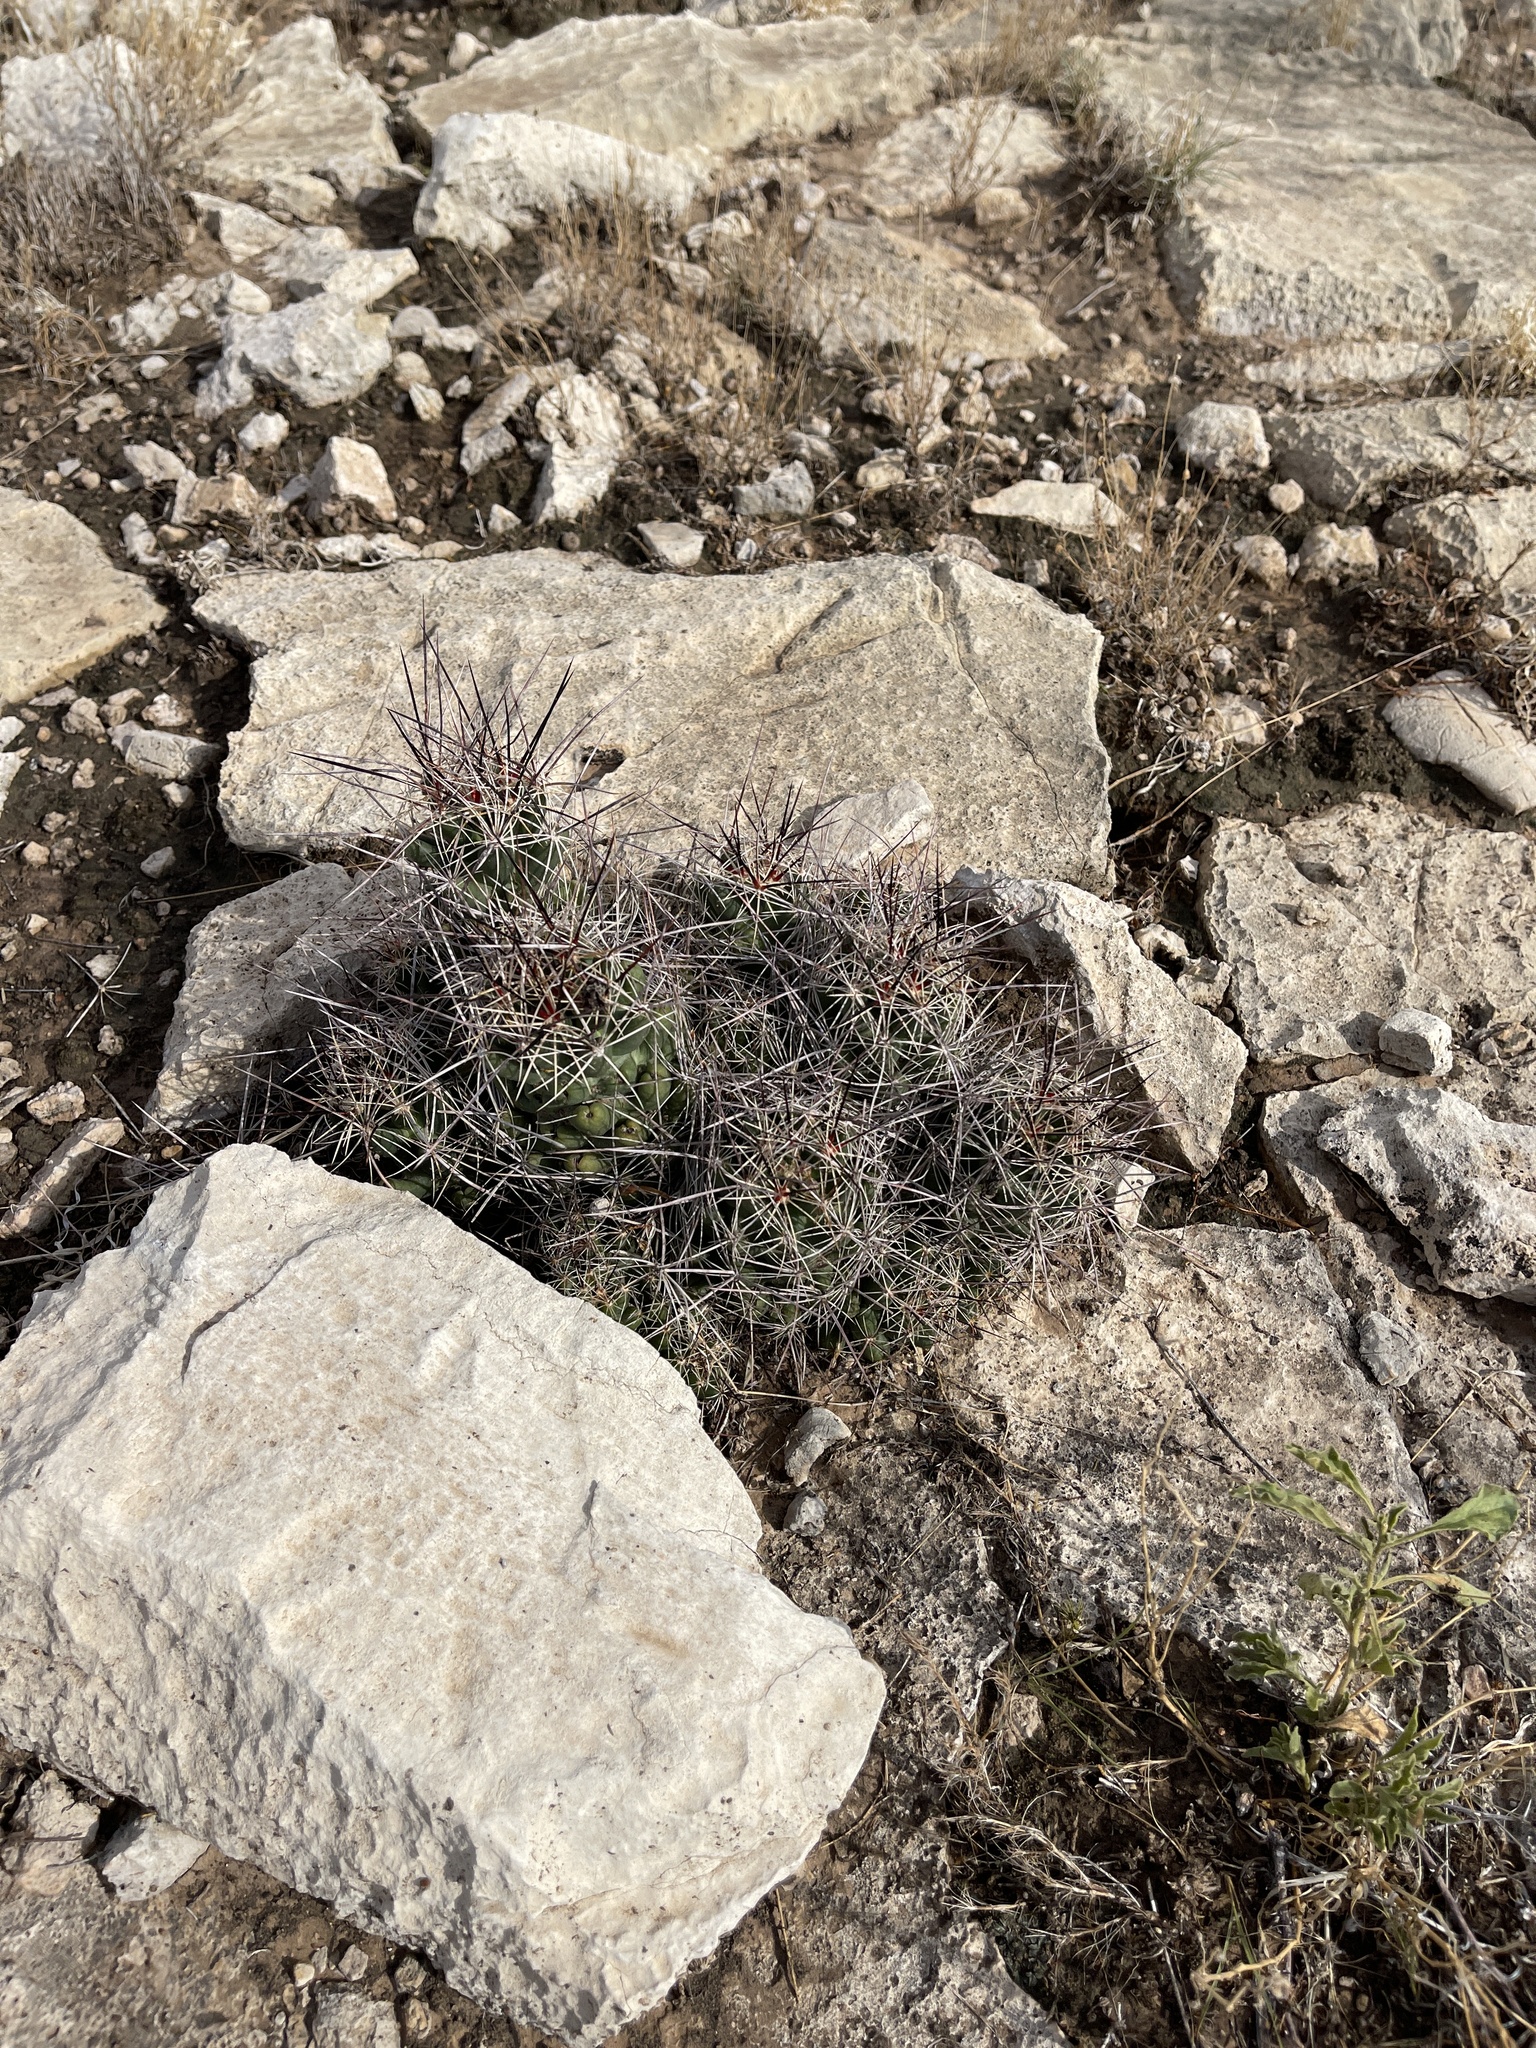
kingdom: Plantae
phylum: Tracheophyta
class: Magnoliopsida
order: Caryophyllales
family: Cactaceae
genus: Coryphantha
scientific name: Coryphantha macromeris
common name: Nipple beehive cactus
